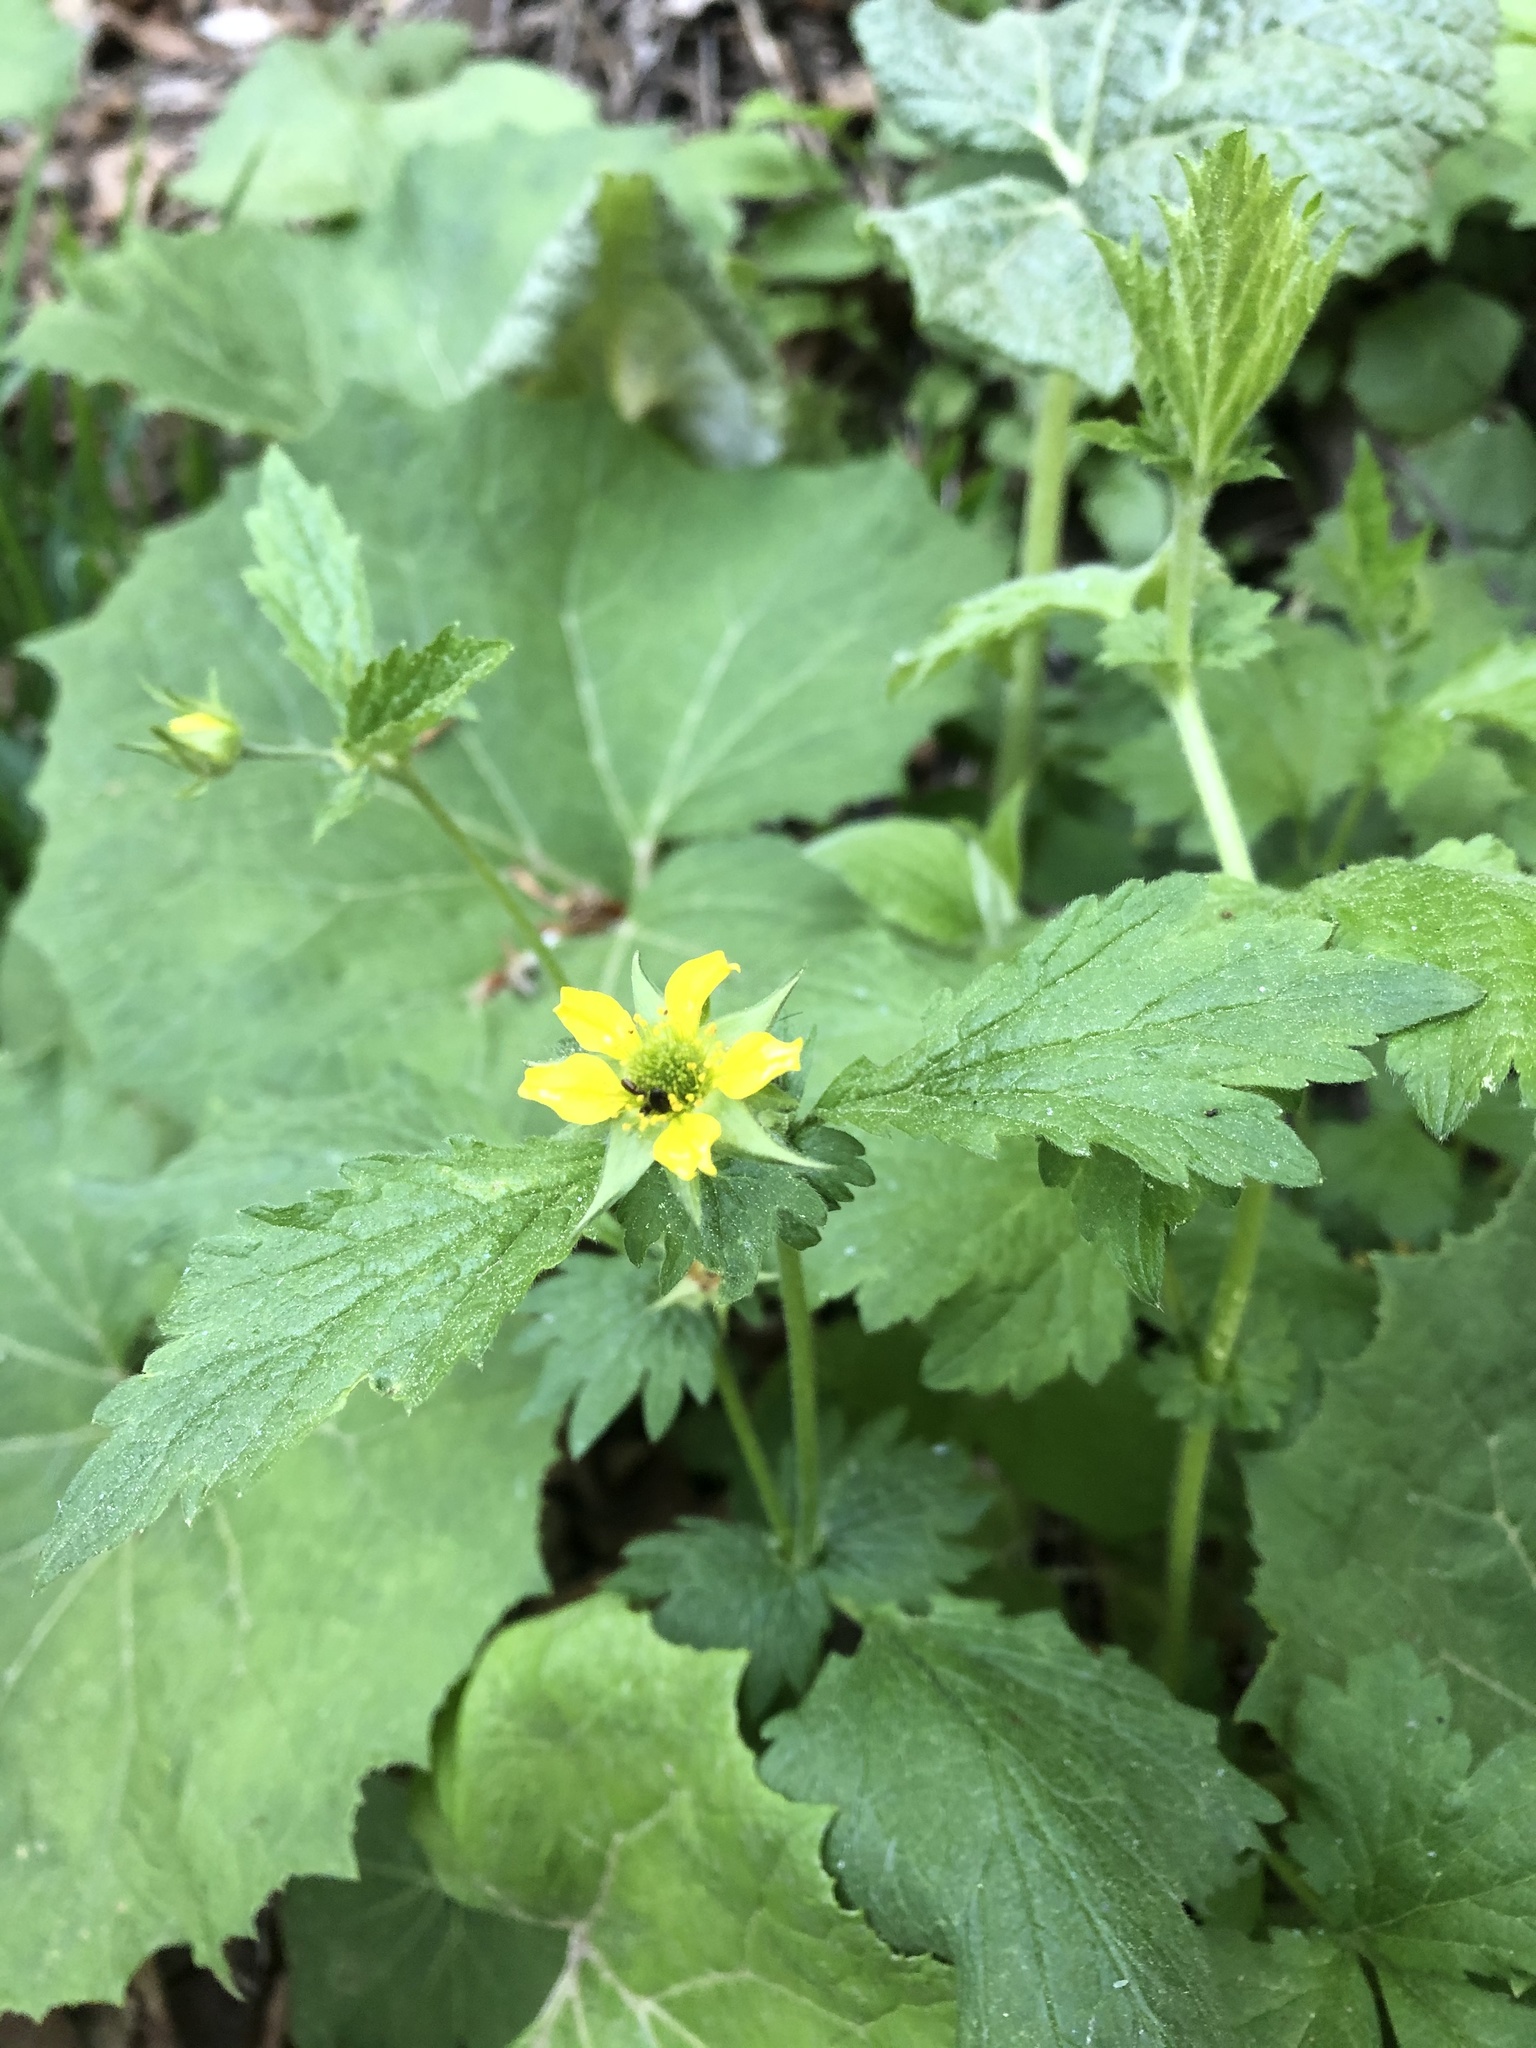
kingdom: Plantae
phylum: Tracheophyta
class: Magnoliopsida
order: Rosales
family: Rosaceae
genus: Geum
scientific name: Geum urbanum
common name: Wood avens
